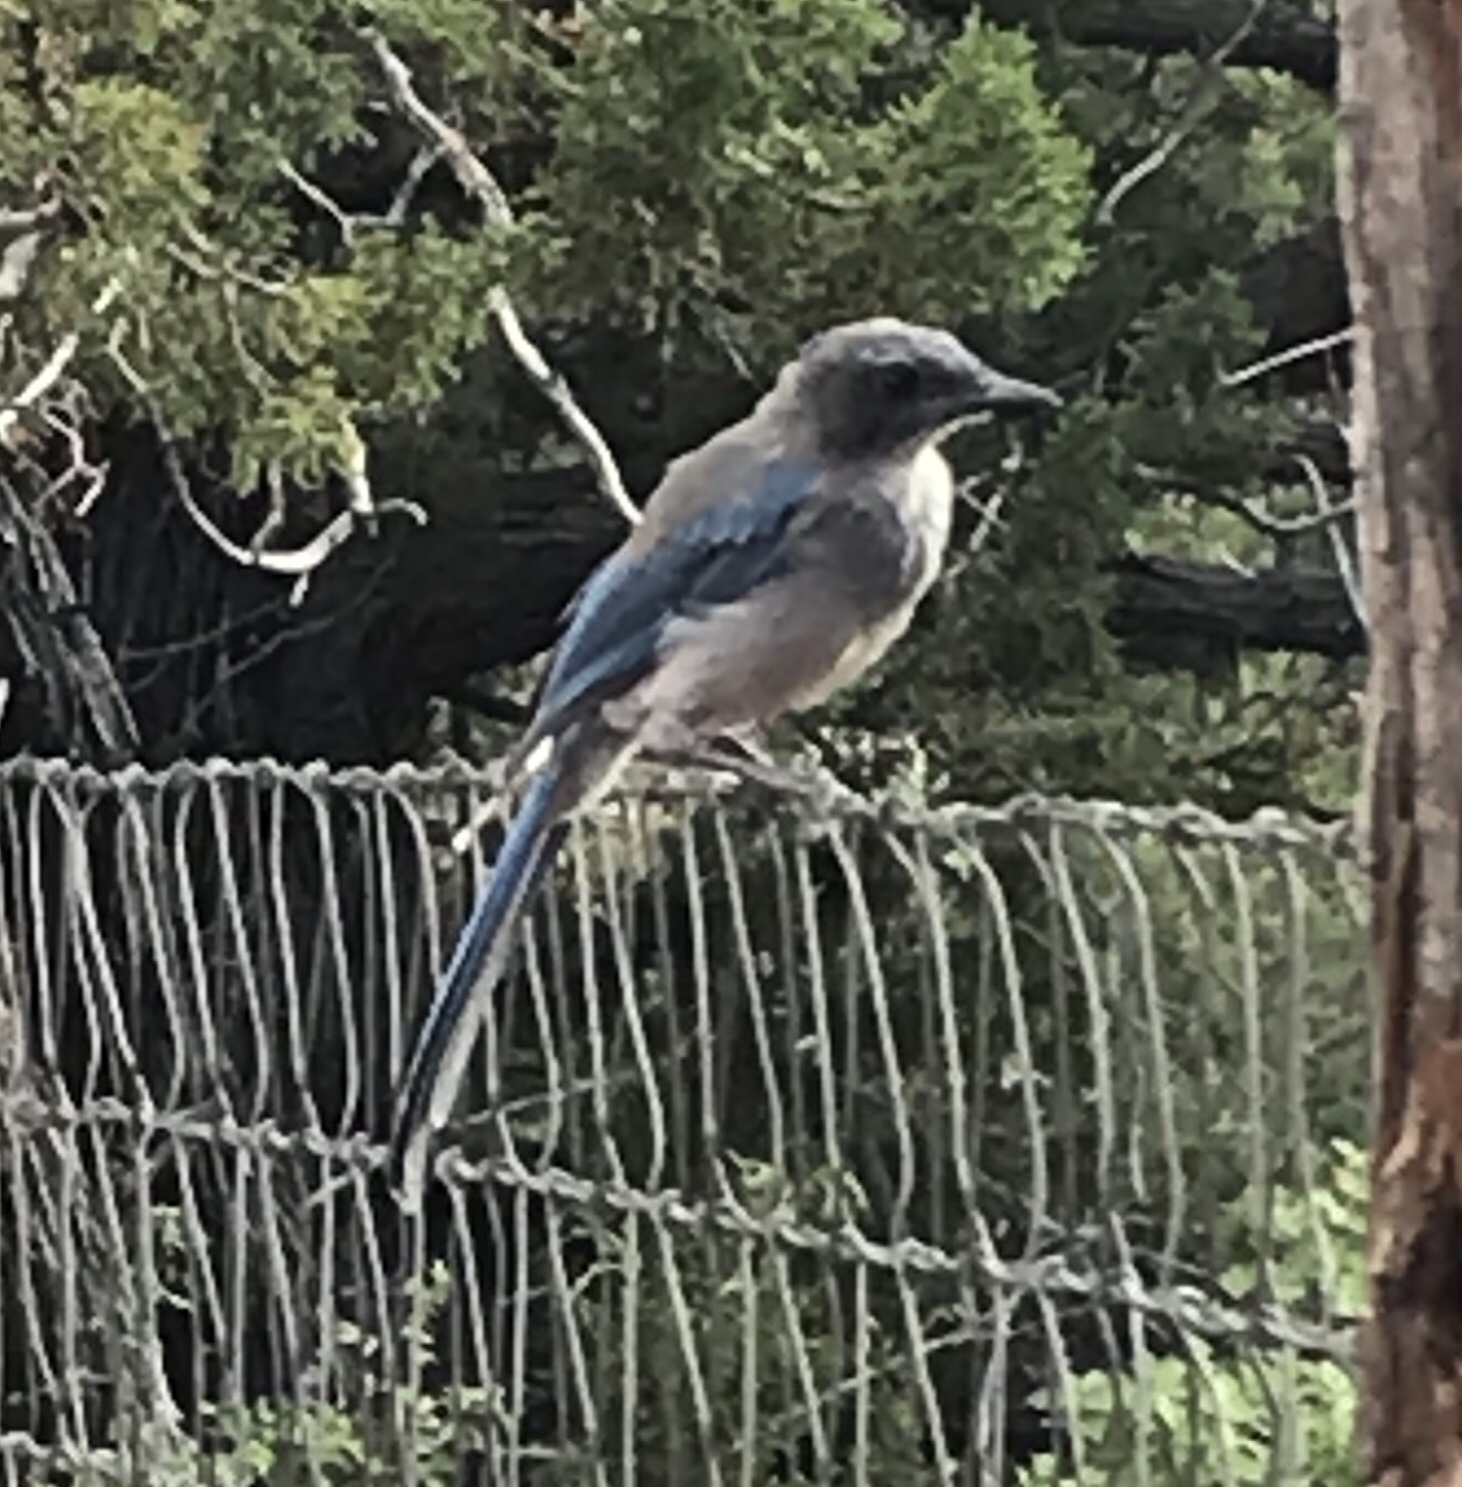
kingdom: Animalia
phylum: Chordata
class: Aves
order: Passeriformes
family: Corvidae
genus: Aphelocoma
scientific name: Aphelocoma woodhouseii
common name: Woodhouse's scrub-jay
